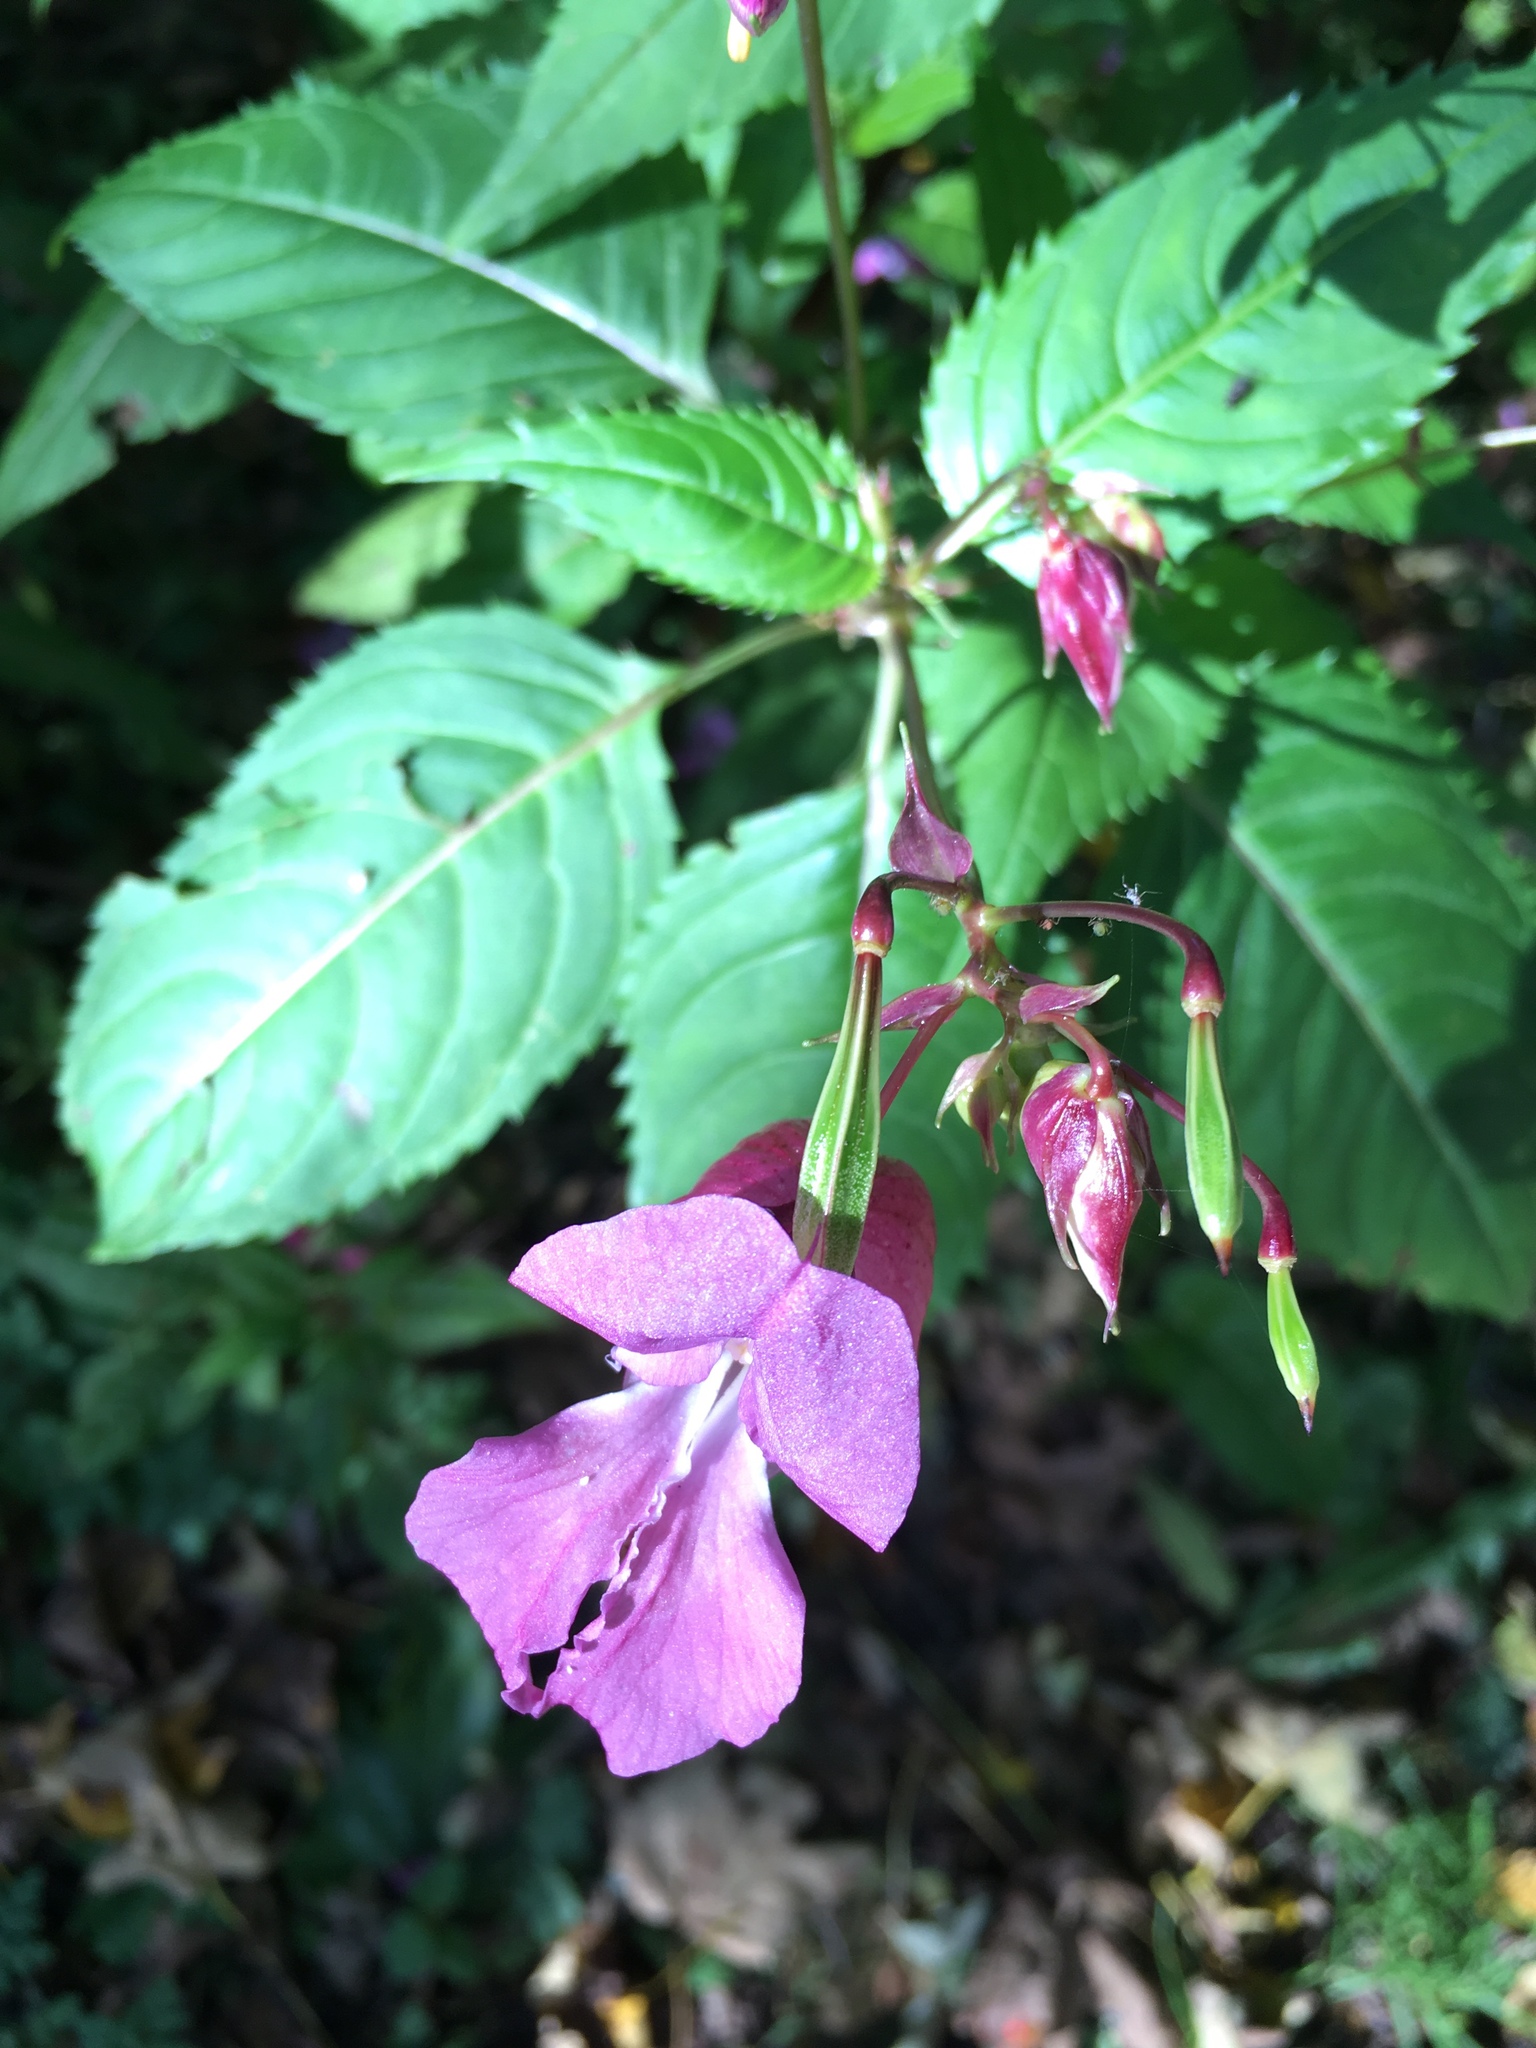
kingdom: Plantae
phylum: Tracheophyta
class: Magnoliopsida
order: Ericales
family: Balsaminaceae
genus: Impatiens
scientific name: Impatiens glandulifera
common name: Himalayan balsam
